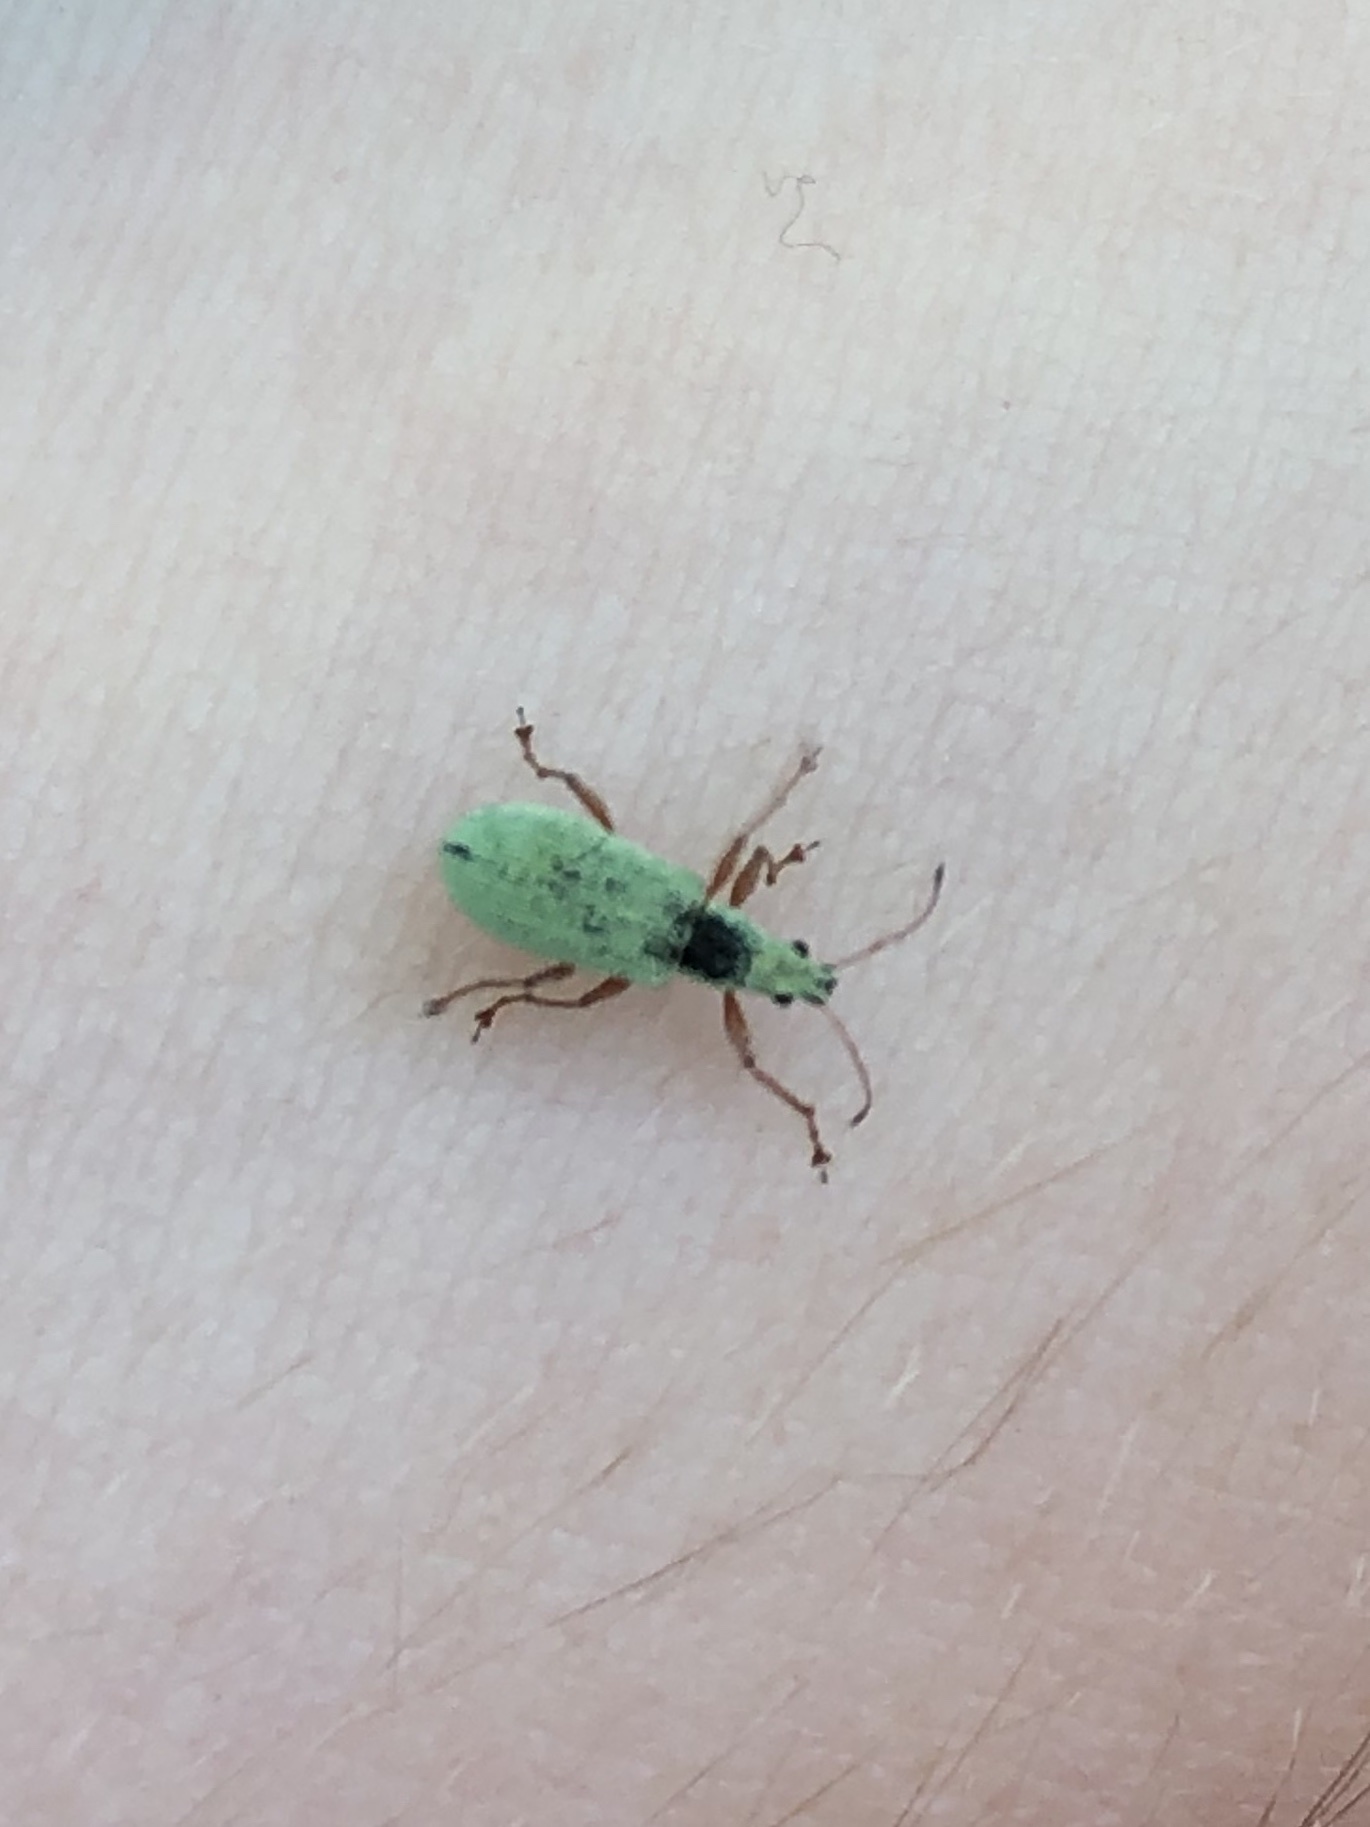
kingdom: Animalia
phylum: Arthropoda
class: Insecta
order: Coleoptera
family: Curculionidae
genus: Polydrusus
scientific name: Polydrusus impressifrons
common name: Weevil
